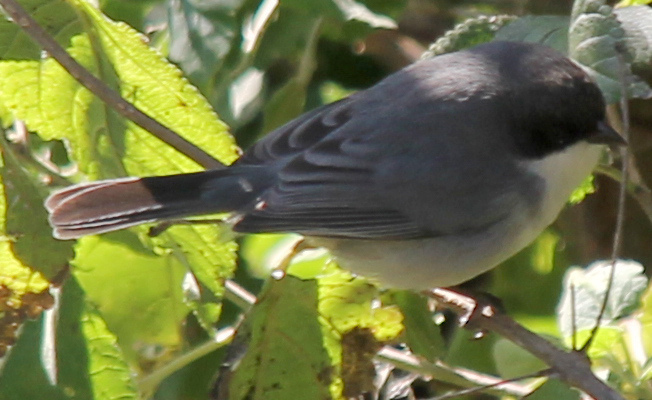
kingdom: Animalia
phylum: Chordata
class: Aves
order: Passeriformes
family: Thraupidae
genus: Microspingus
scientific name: Microspingus melanoleucus
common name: Black-capped warbling-finch
